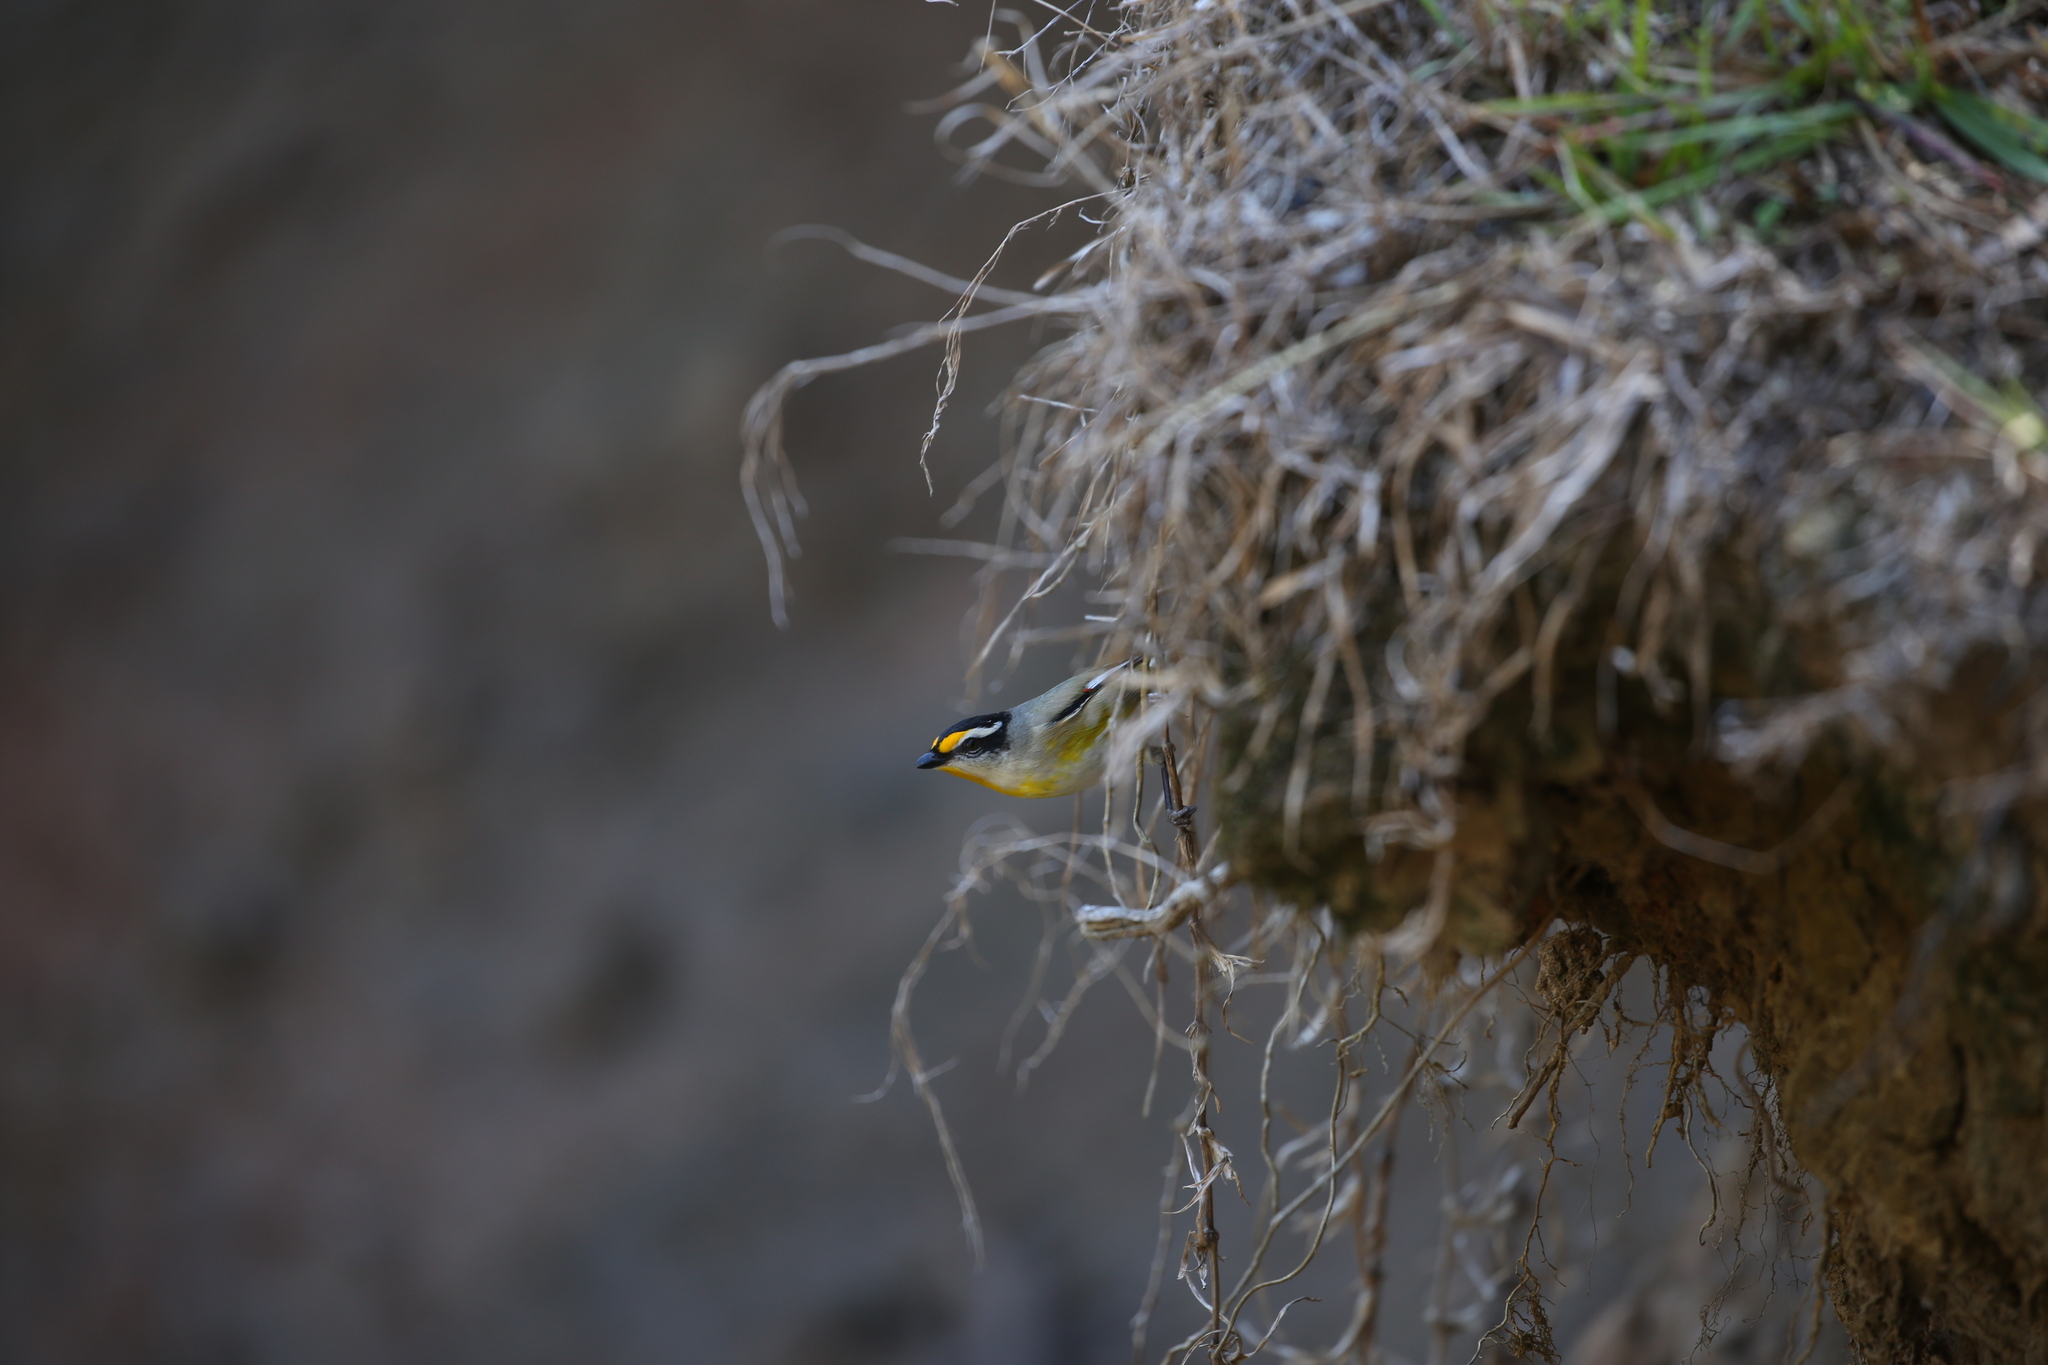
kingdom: Animalia
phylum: Chordata
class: Aves
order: Passeriformes
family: Pardalotidae
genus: Pardalotus
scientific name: Pardalotus striatus
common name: Striated pardalote
